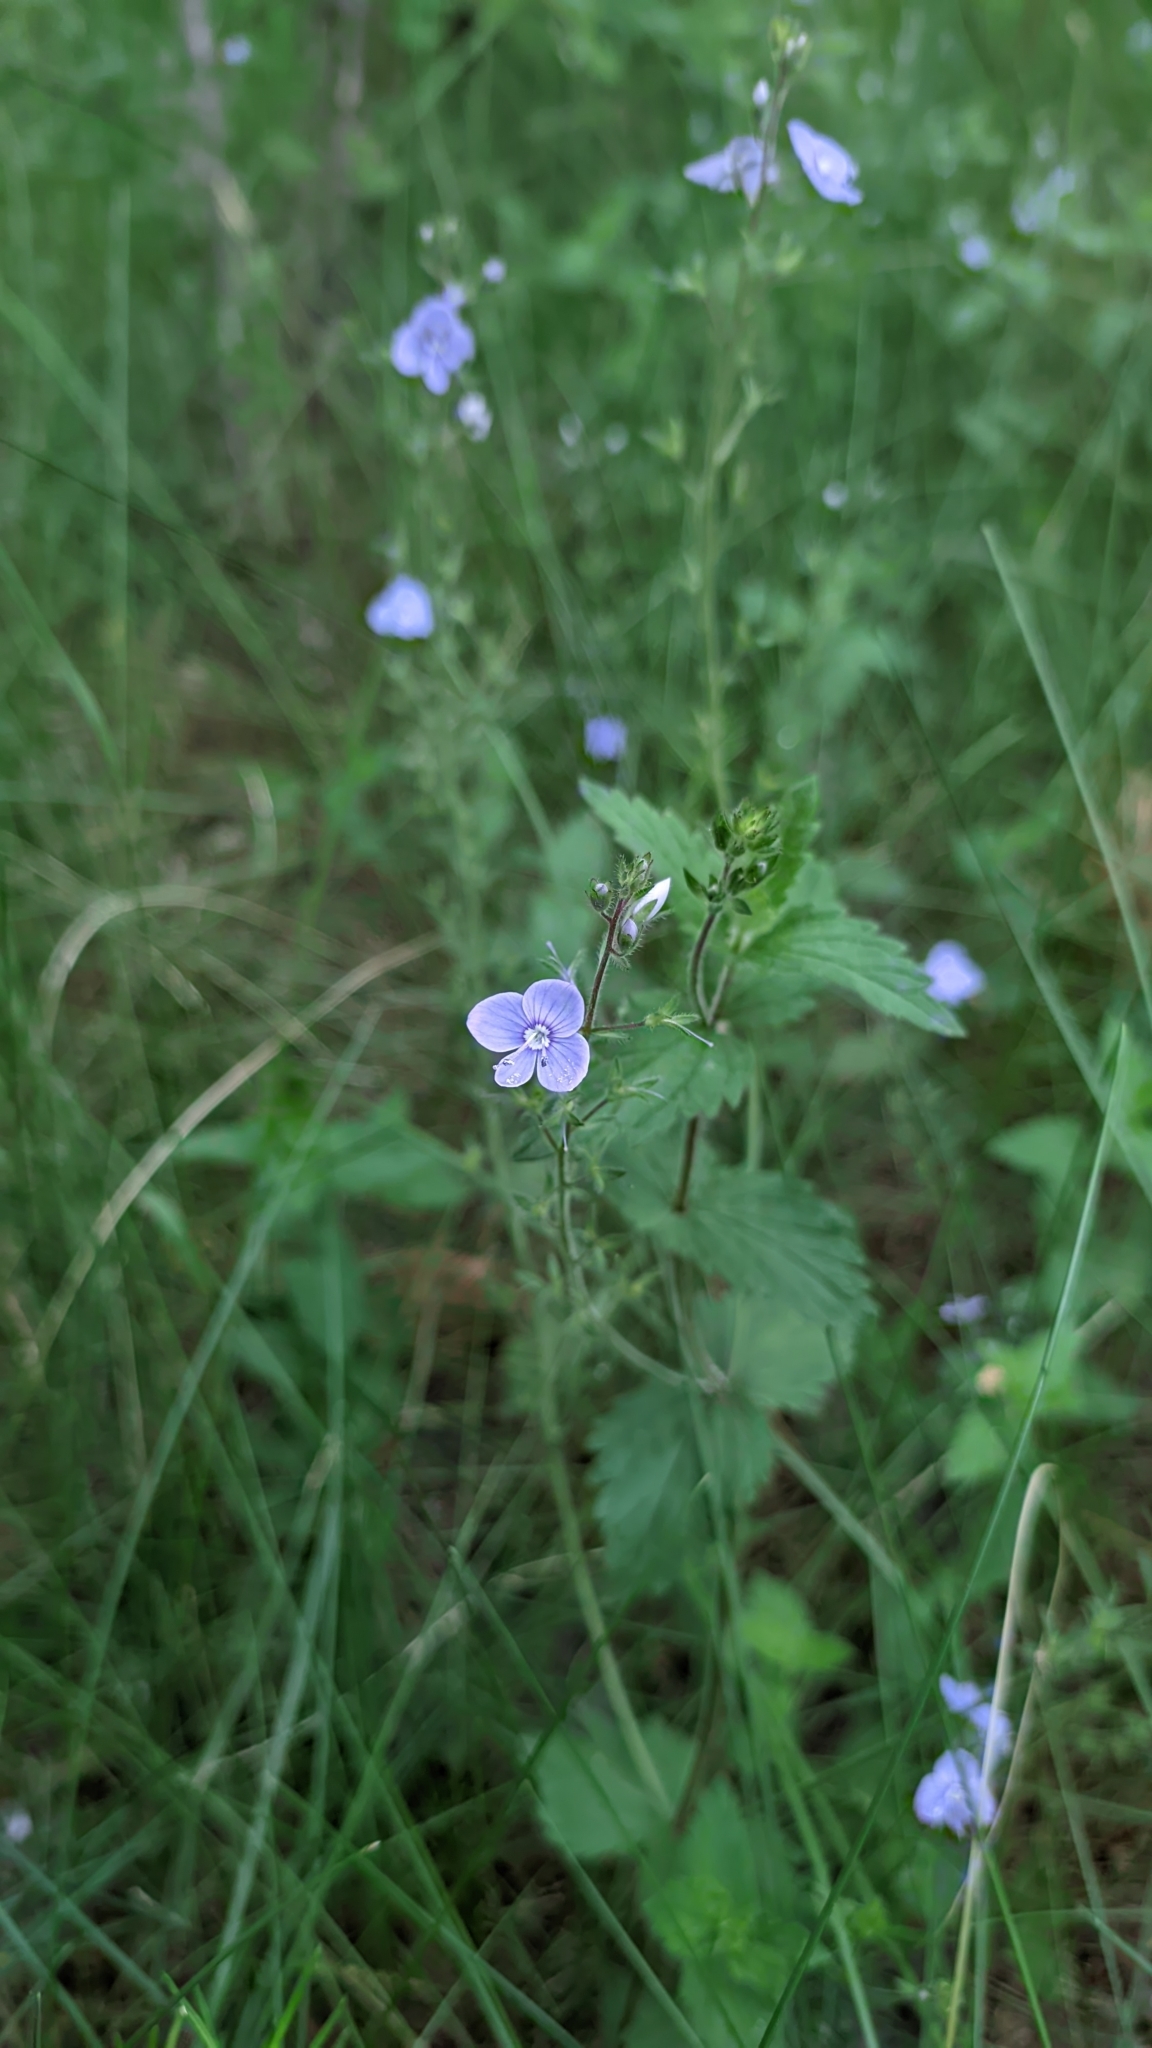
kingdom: Plantae
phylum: Tracheophyta
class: Magnoliopsida
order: Lamiales
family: Plantaginaceae
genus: Veronica
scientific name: Veronica chamaedrys
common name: Germander speedwell
